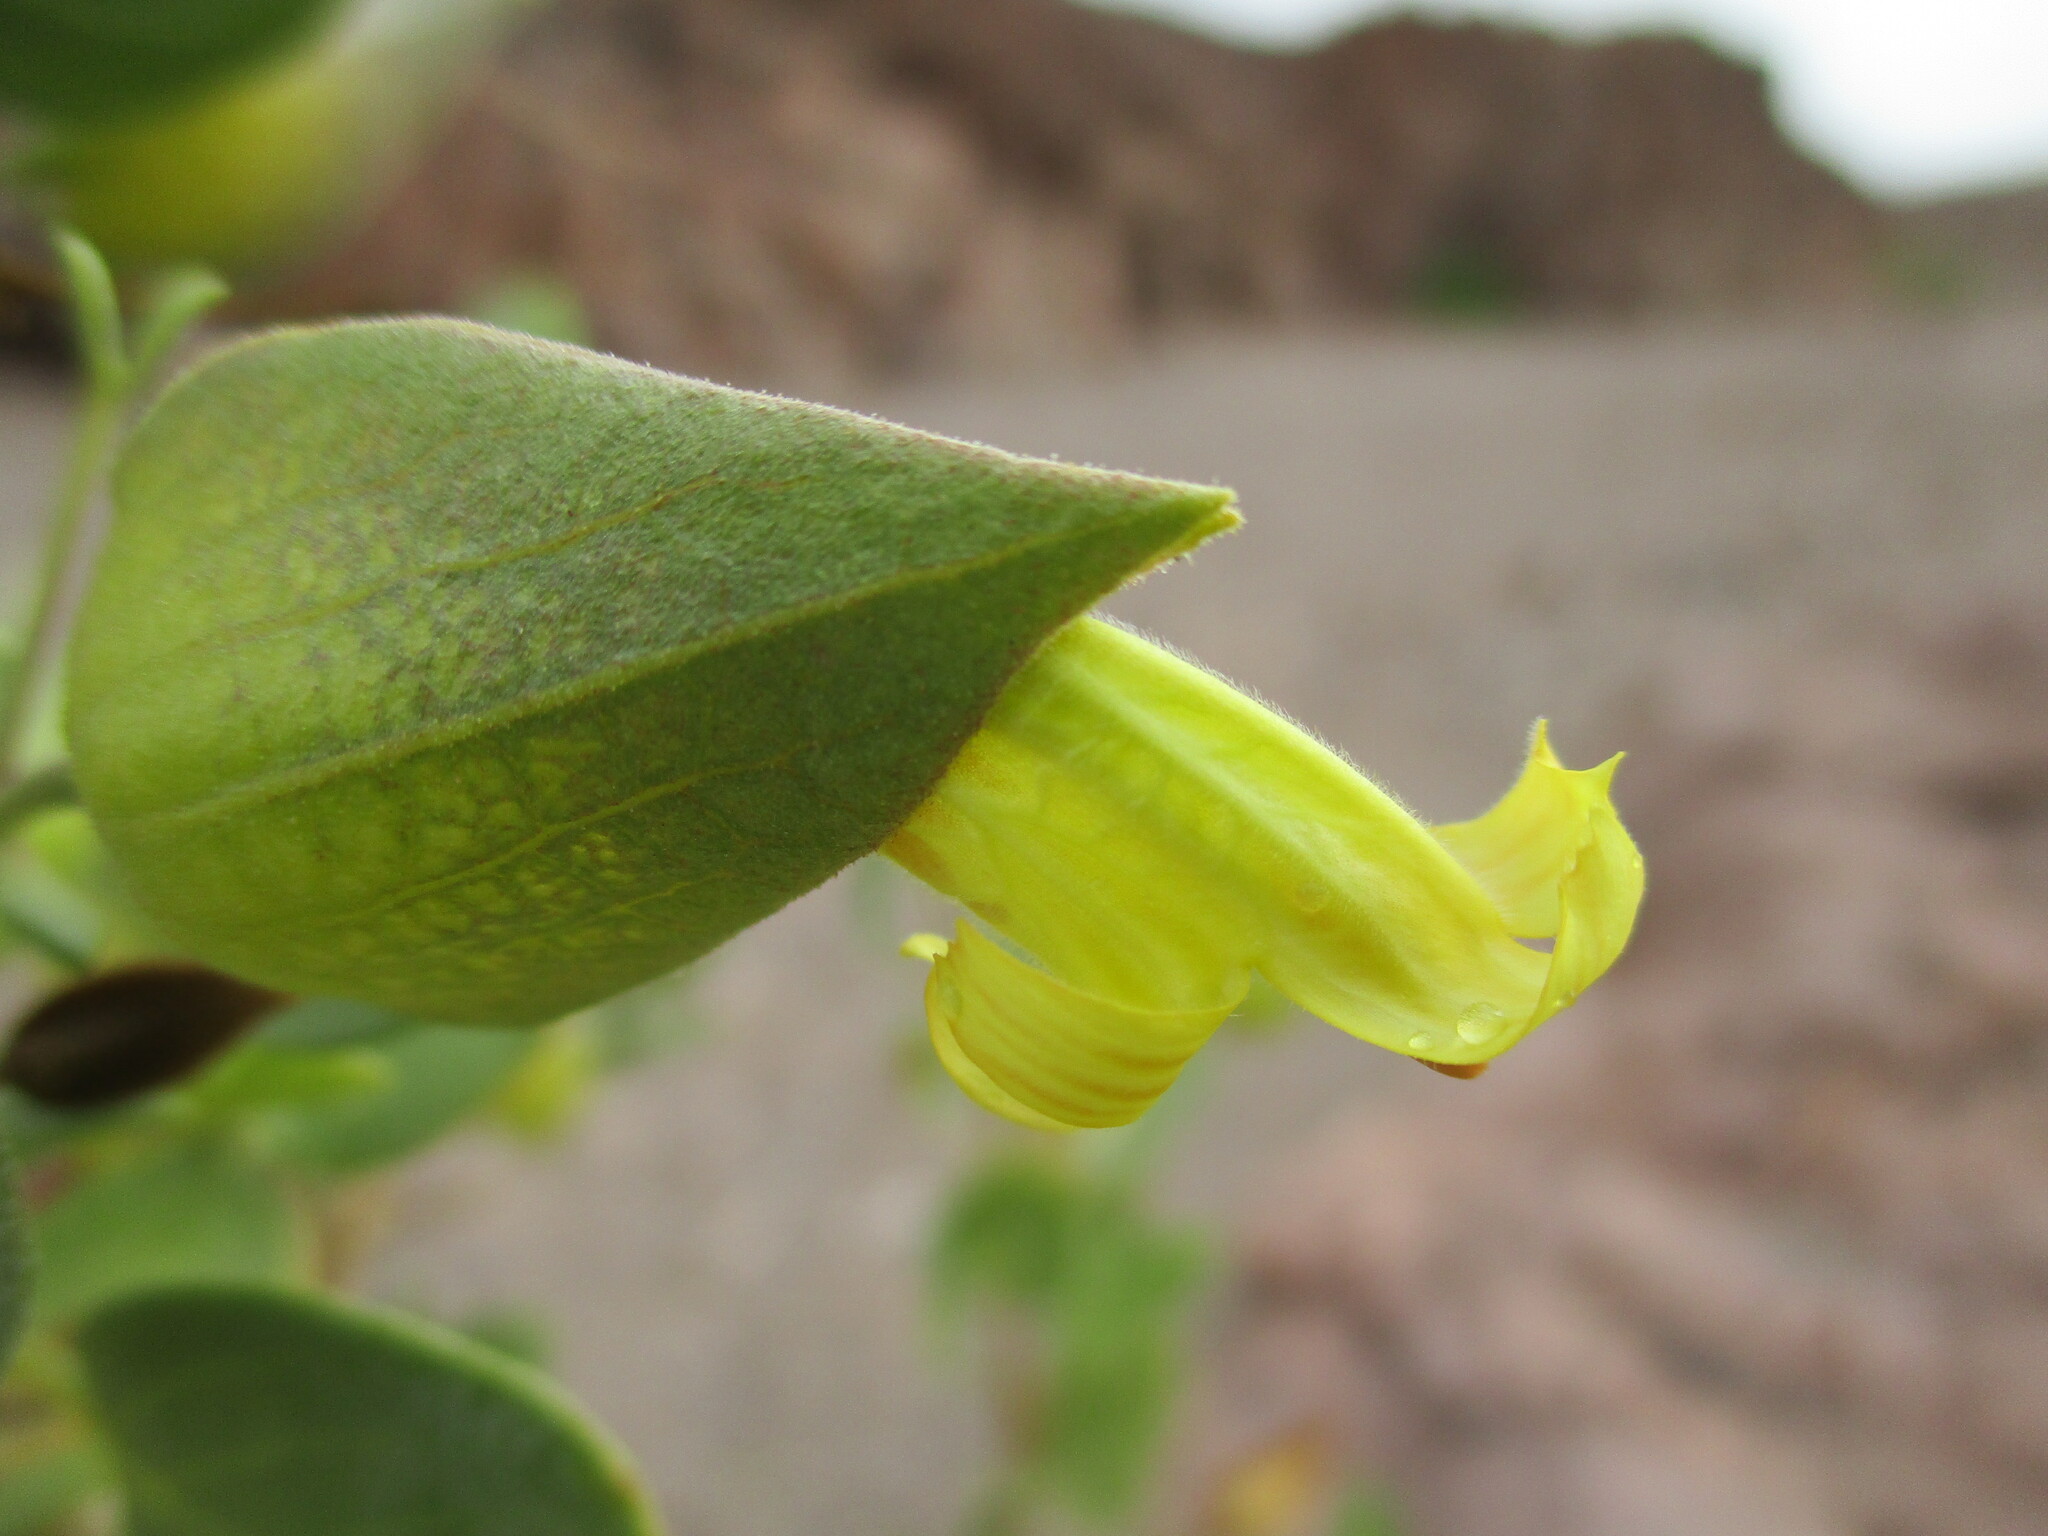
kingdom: Plantae
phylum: Tracheophyta
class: Magnoliopsida
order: Lamiales
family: Acanthaceae
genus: Petalidium
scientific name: Petalidium coccineum
